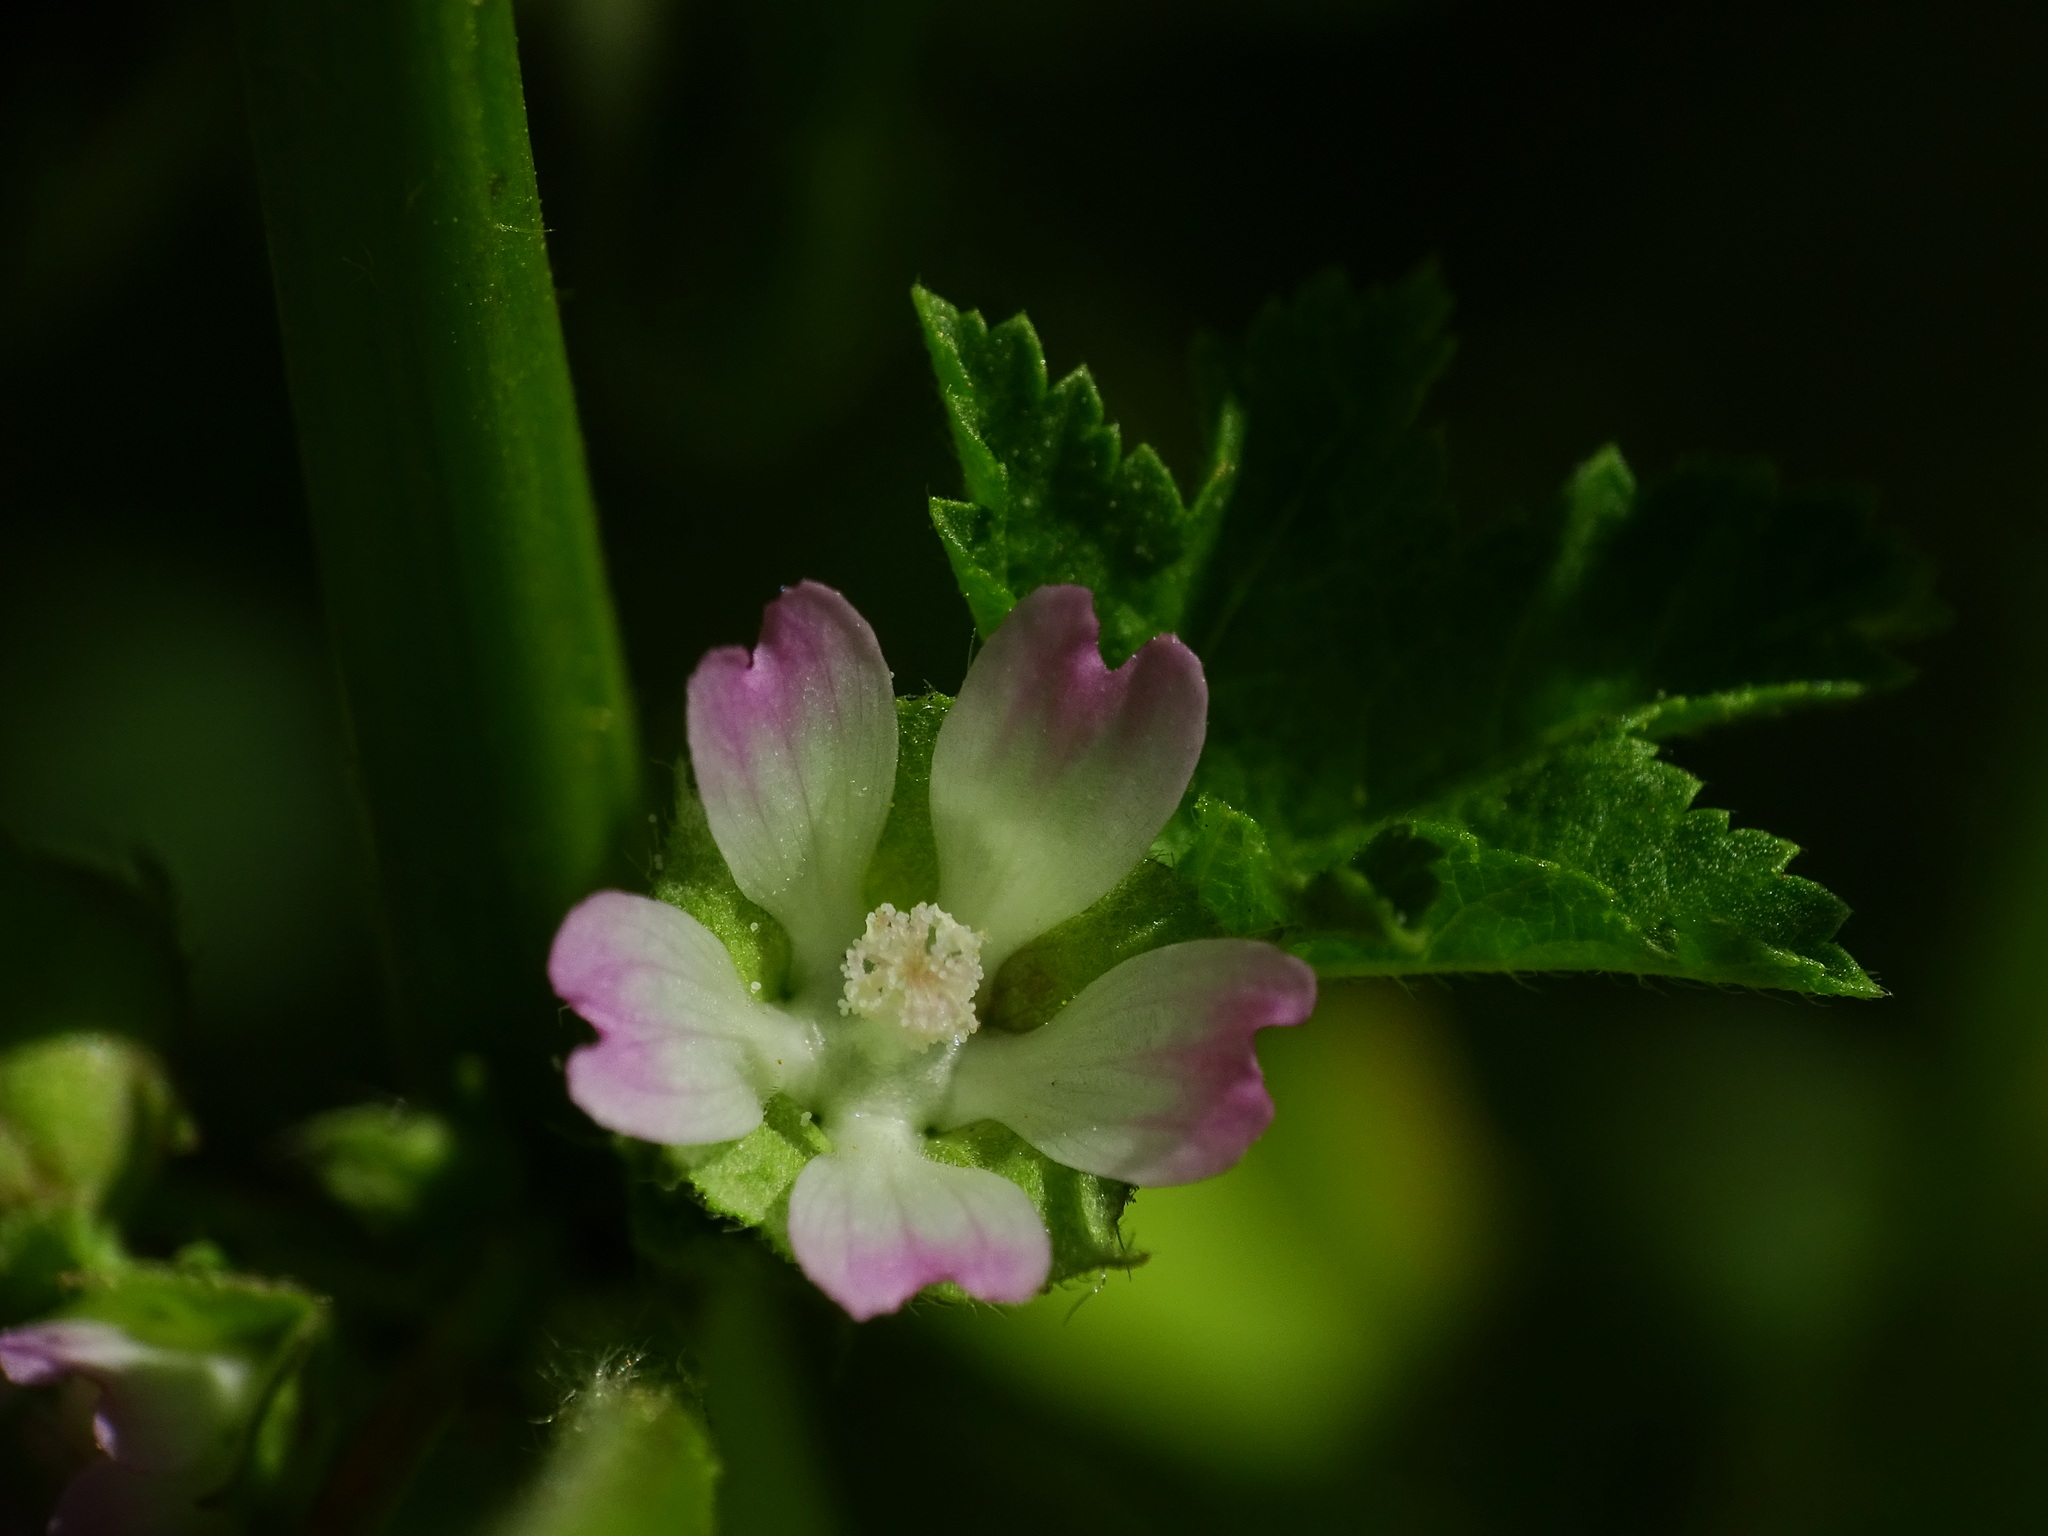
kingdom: Plantae
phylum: Tracheophyta
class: Magnoliopsida
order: Malvales
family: Malvaceae
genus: Malva
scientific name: Malva parviflora
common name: Least mallow
